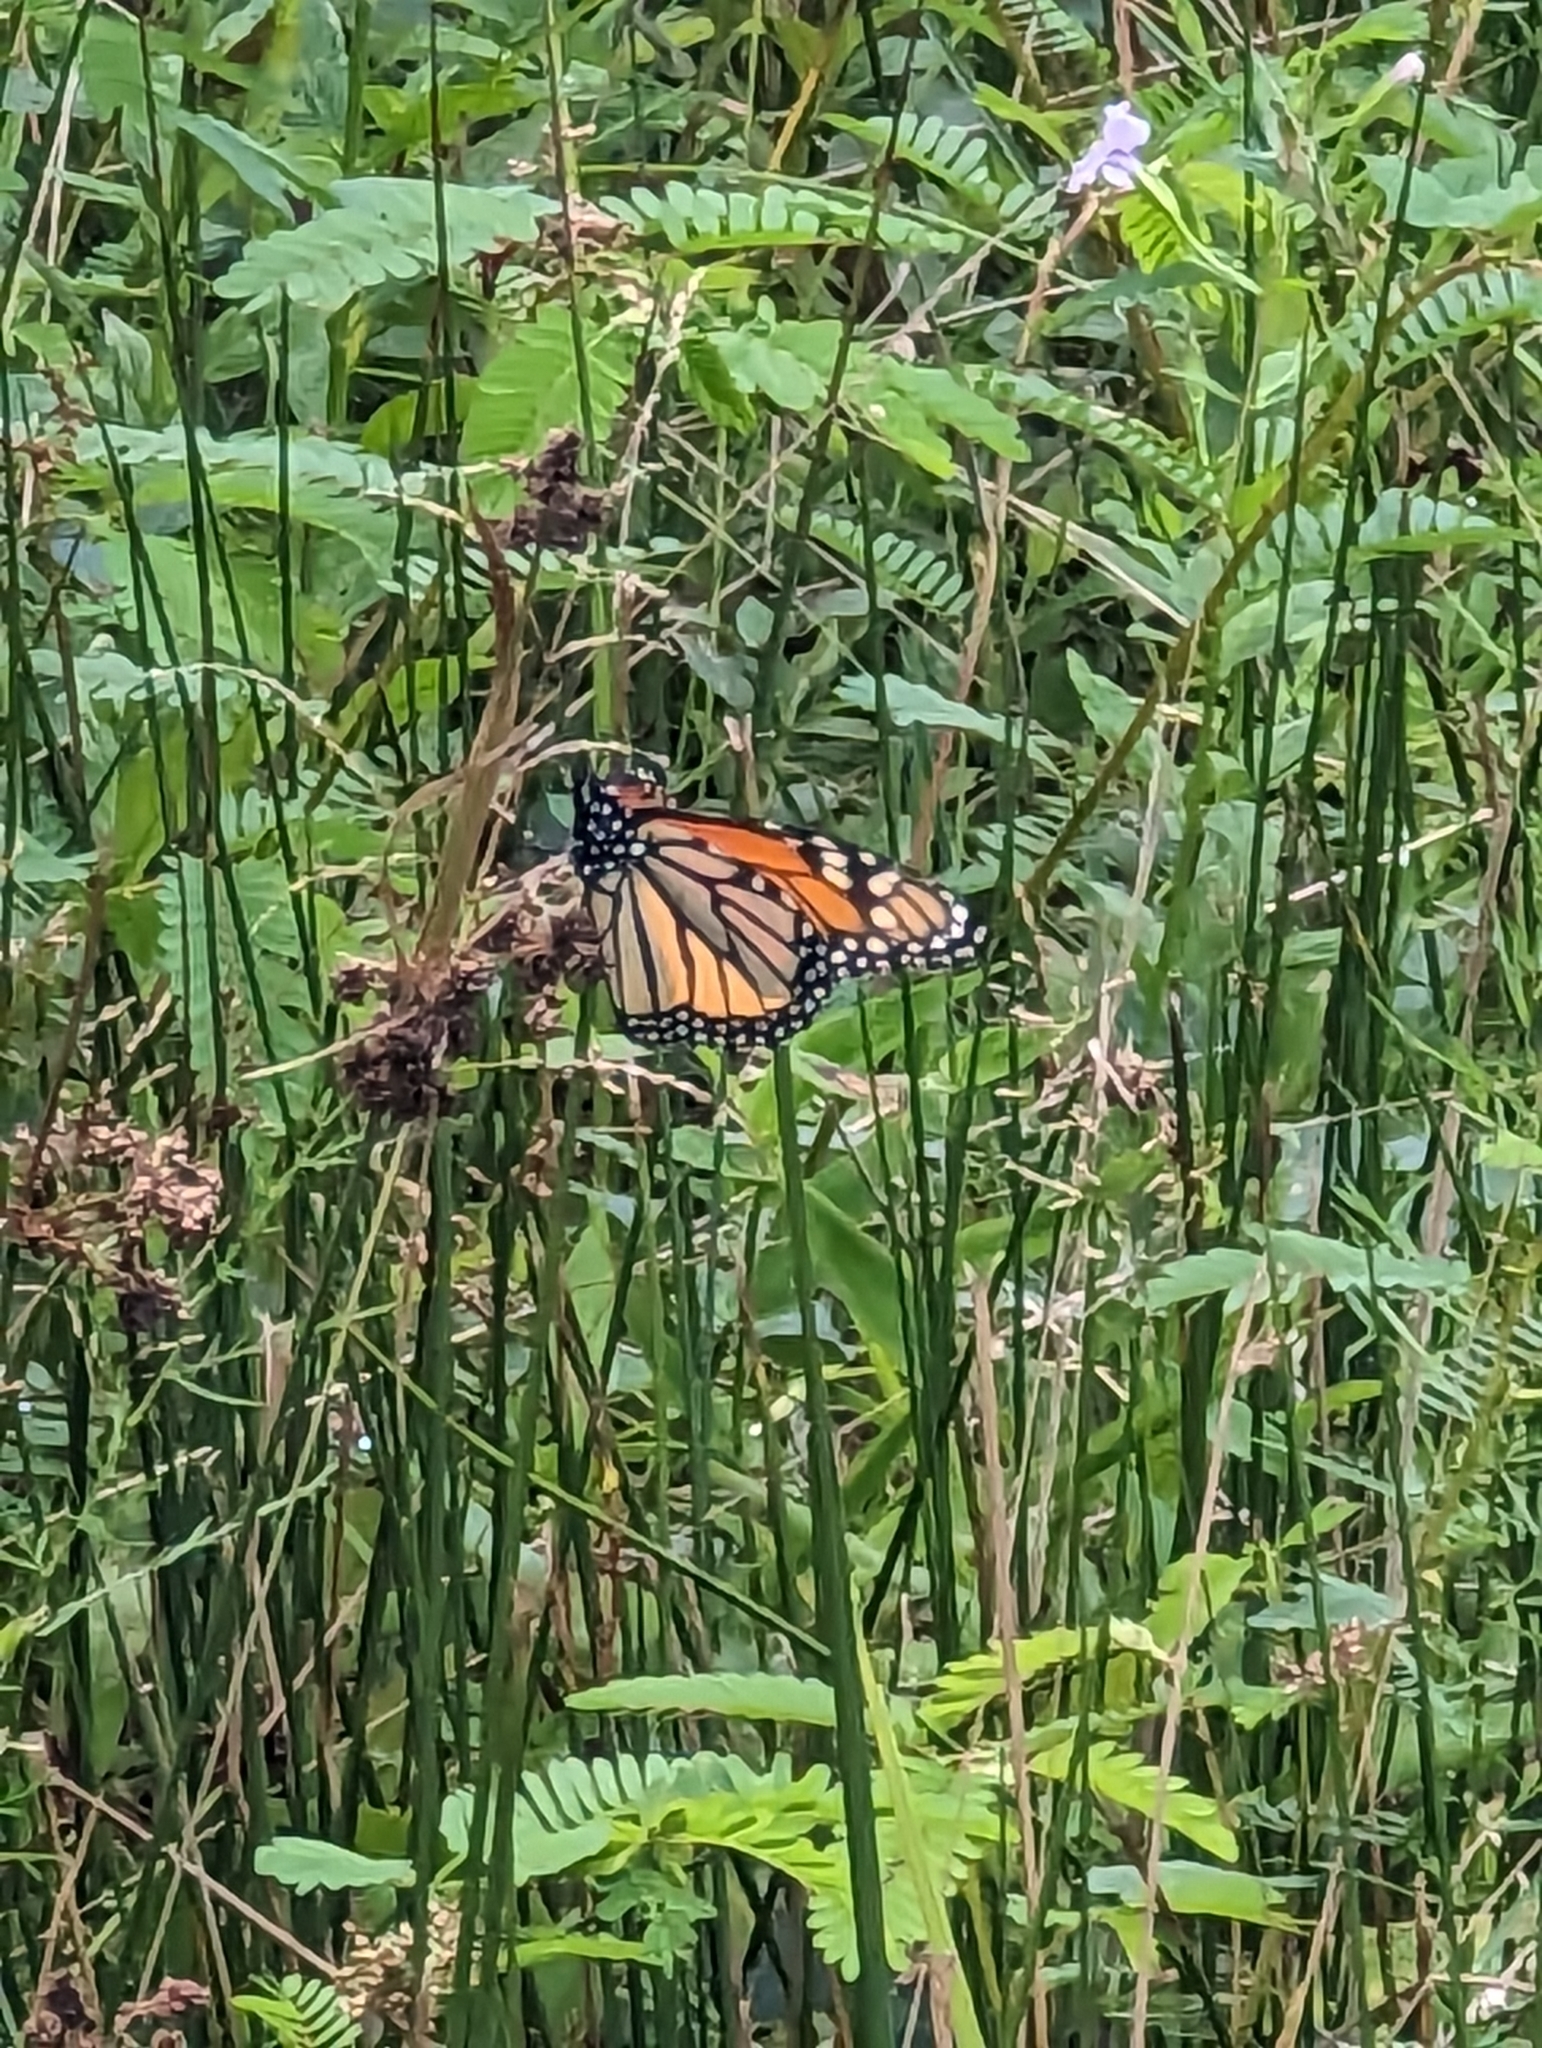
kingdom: Animalia
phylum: Arthropoda
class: Insecta
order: Lepidoptera
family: Nymphalidae
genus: Danaus
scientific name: Danaus plexippus
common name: Monarch
